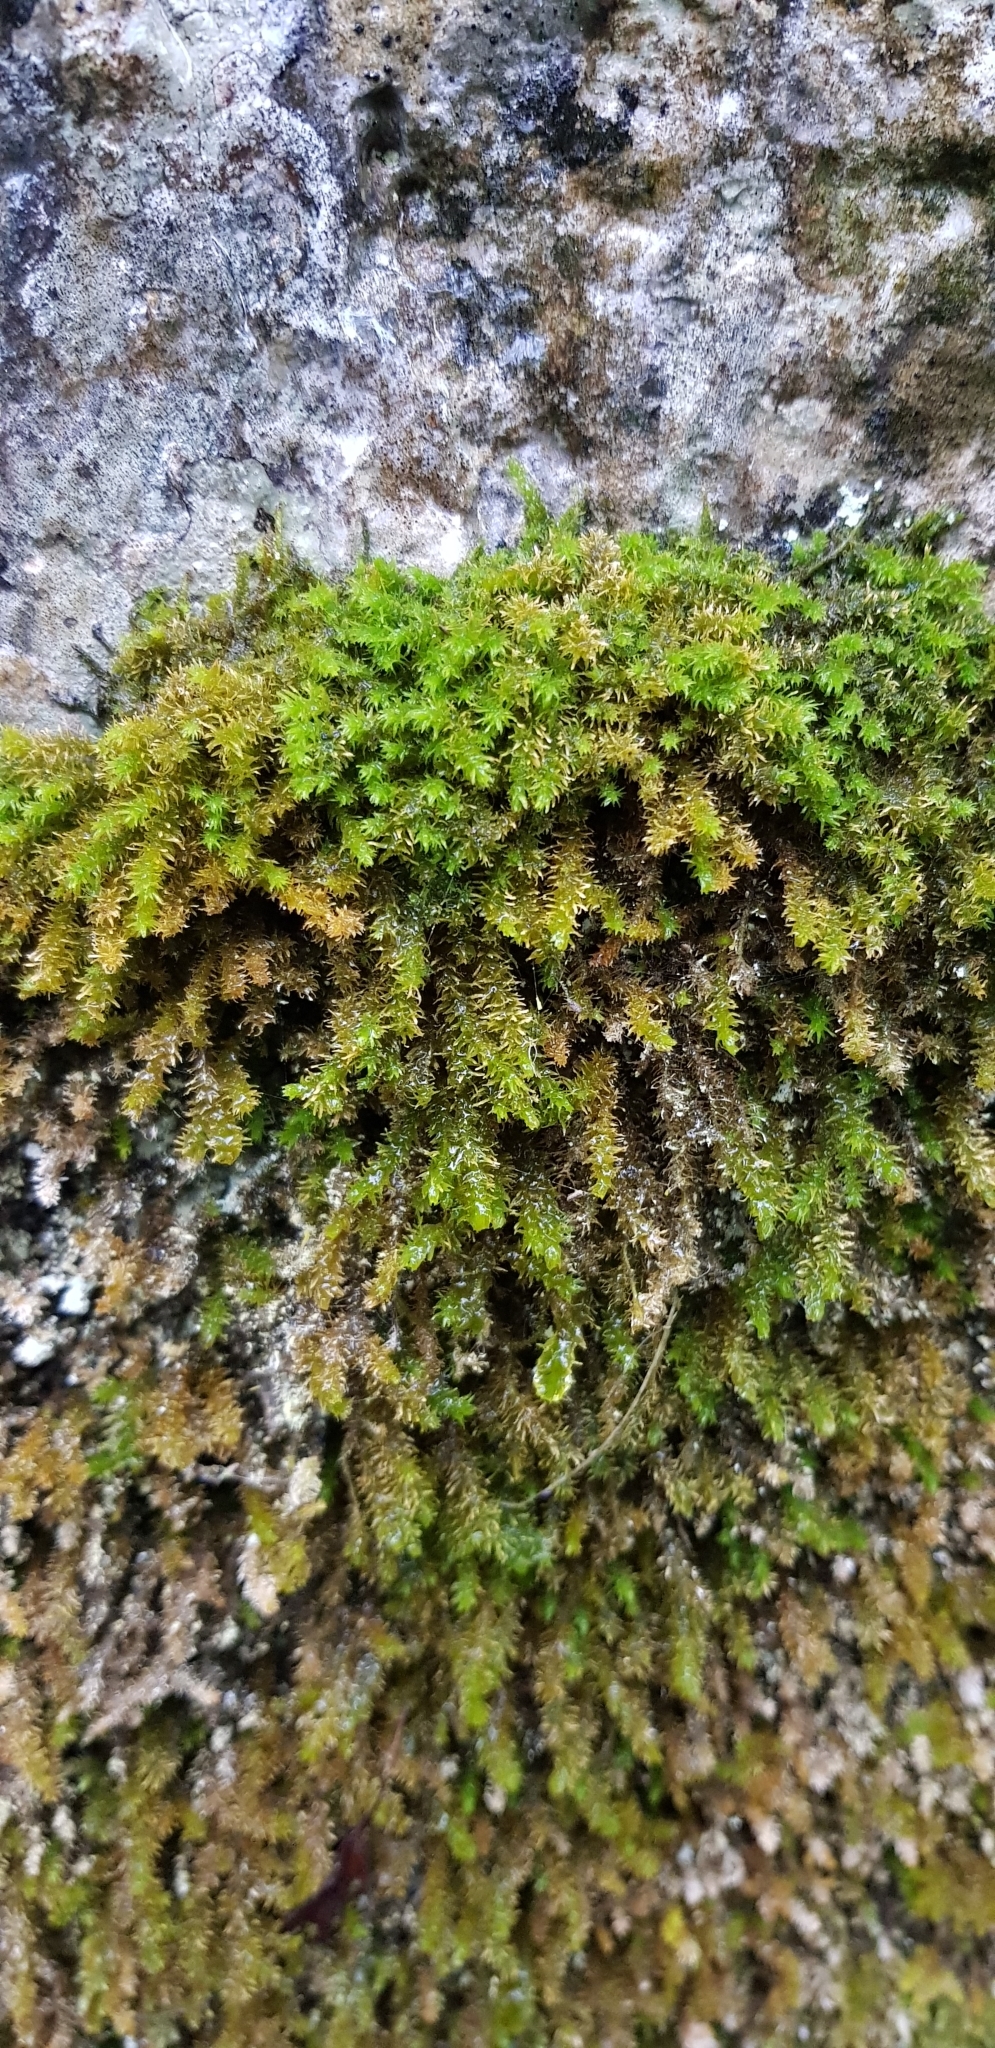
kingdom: Plantae
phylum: Bryophyta
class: Bryopsida
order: Hypnales
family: Anomodontaceae
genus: Anomodon
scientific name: Anomodon viticulosus
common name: Tall anomodon
